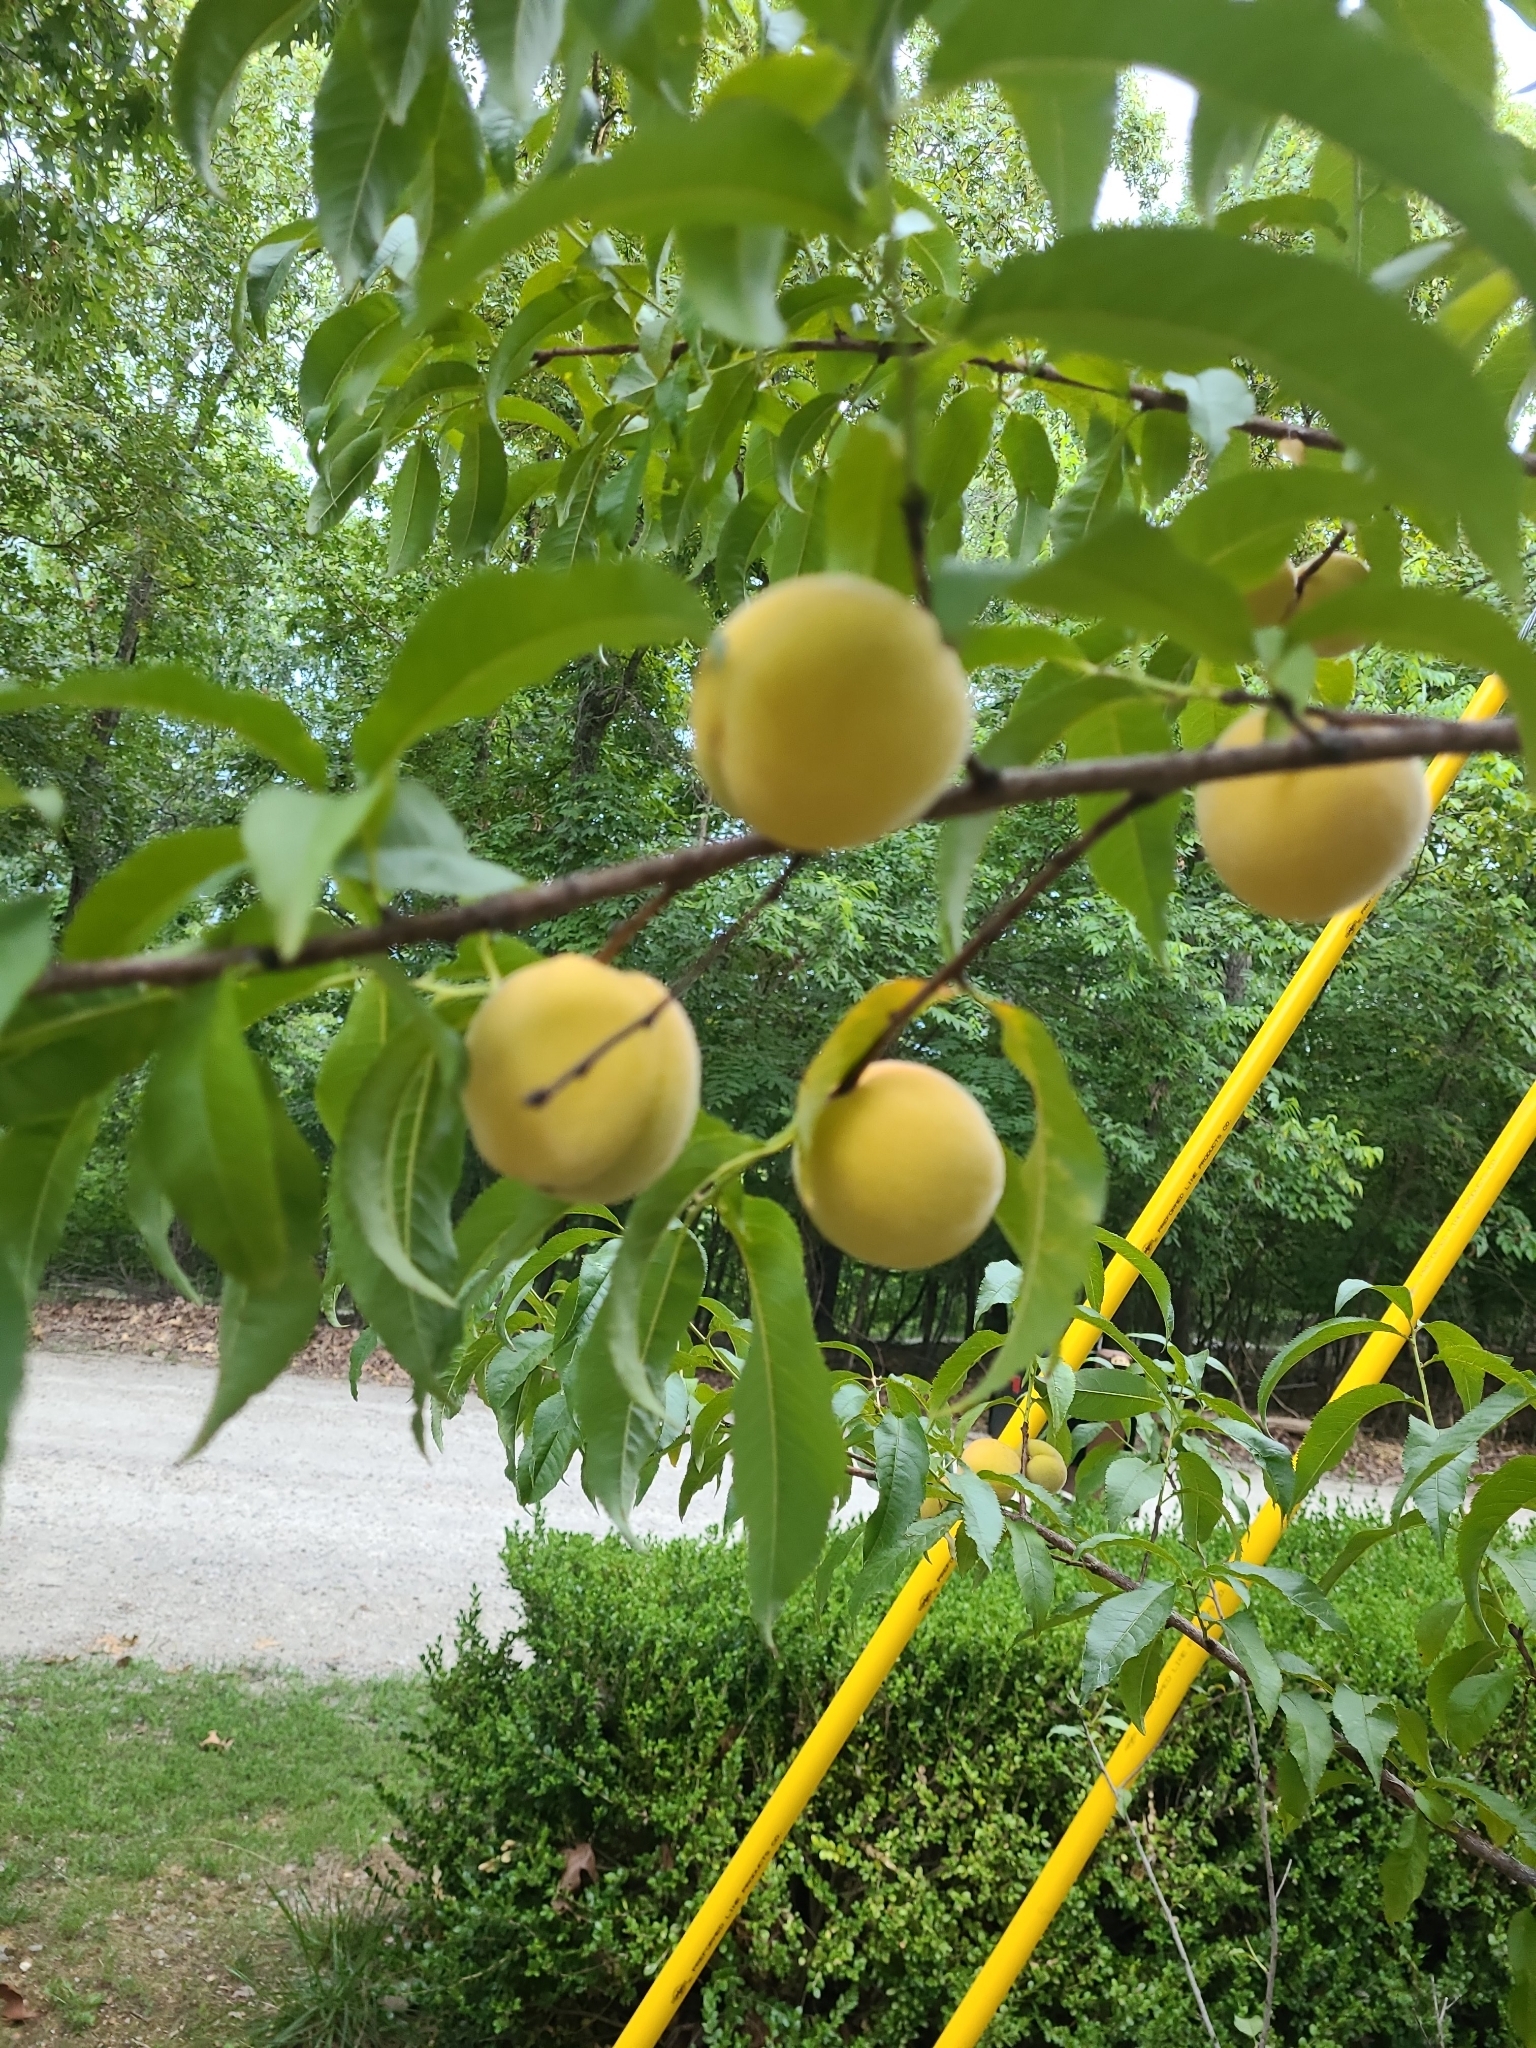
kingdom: Plantae
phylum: Tracheophyta
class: Magnoliopsida
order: Rosales
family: Rosaceae
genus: Prunus
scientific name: Prunus persica
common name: Peach
